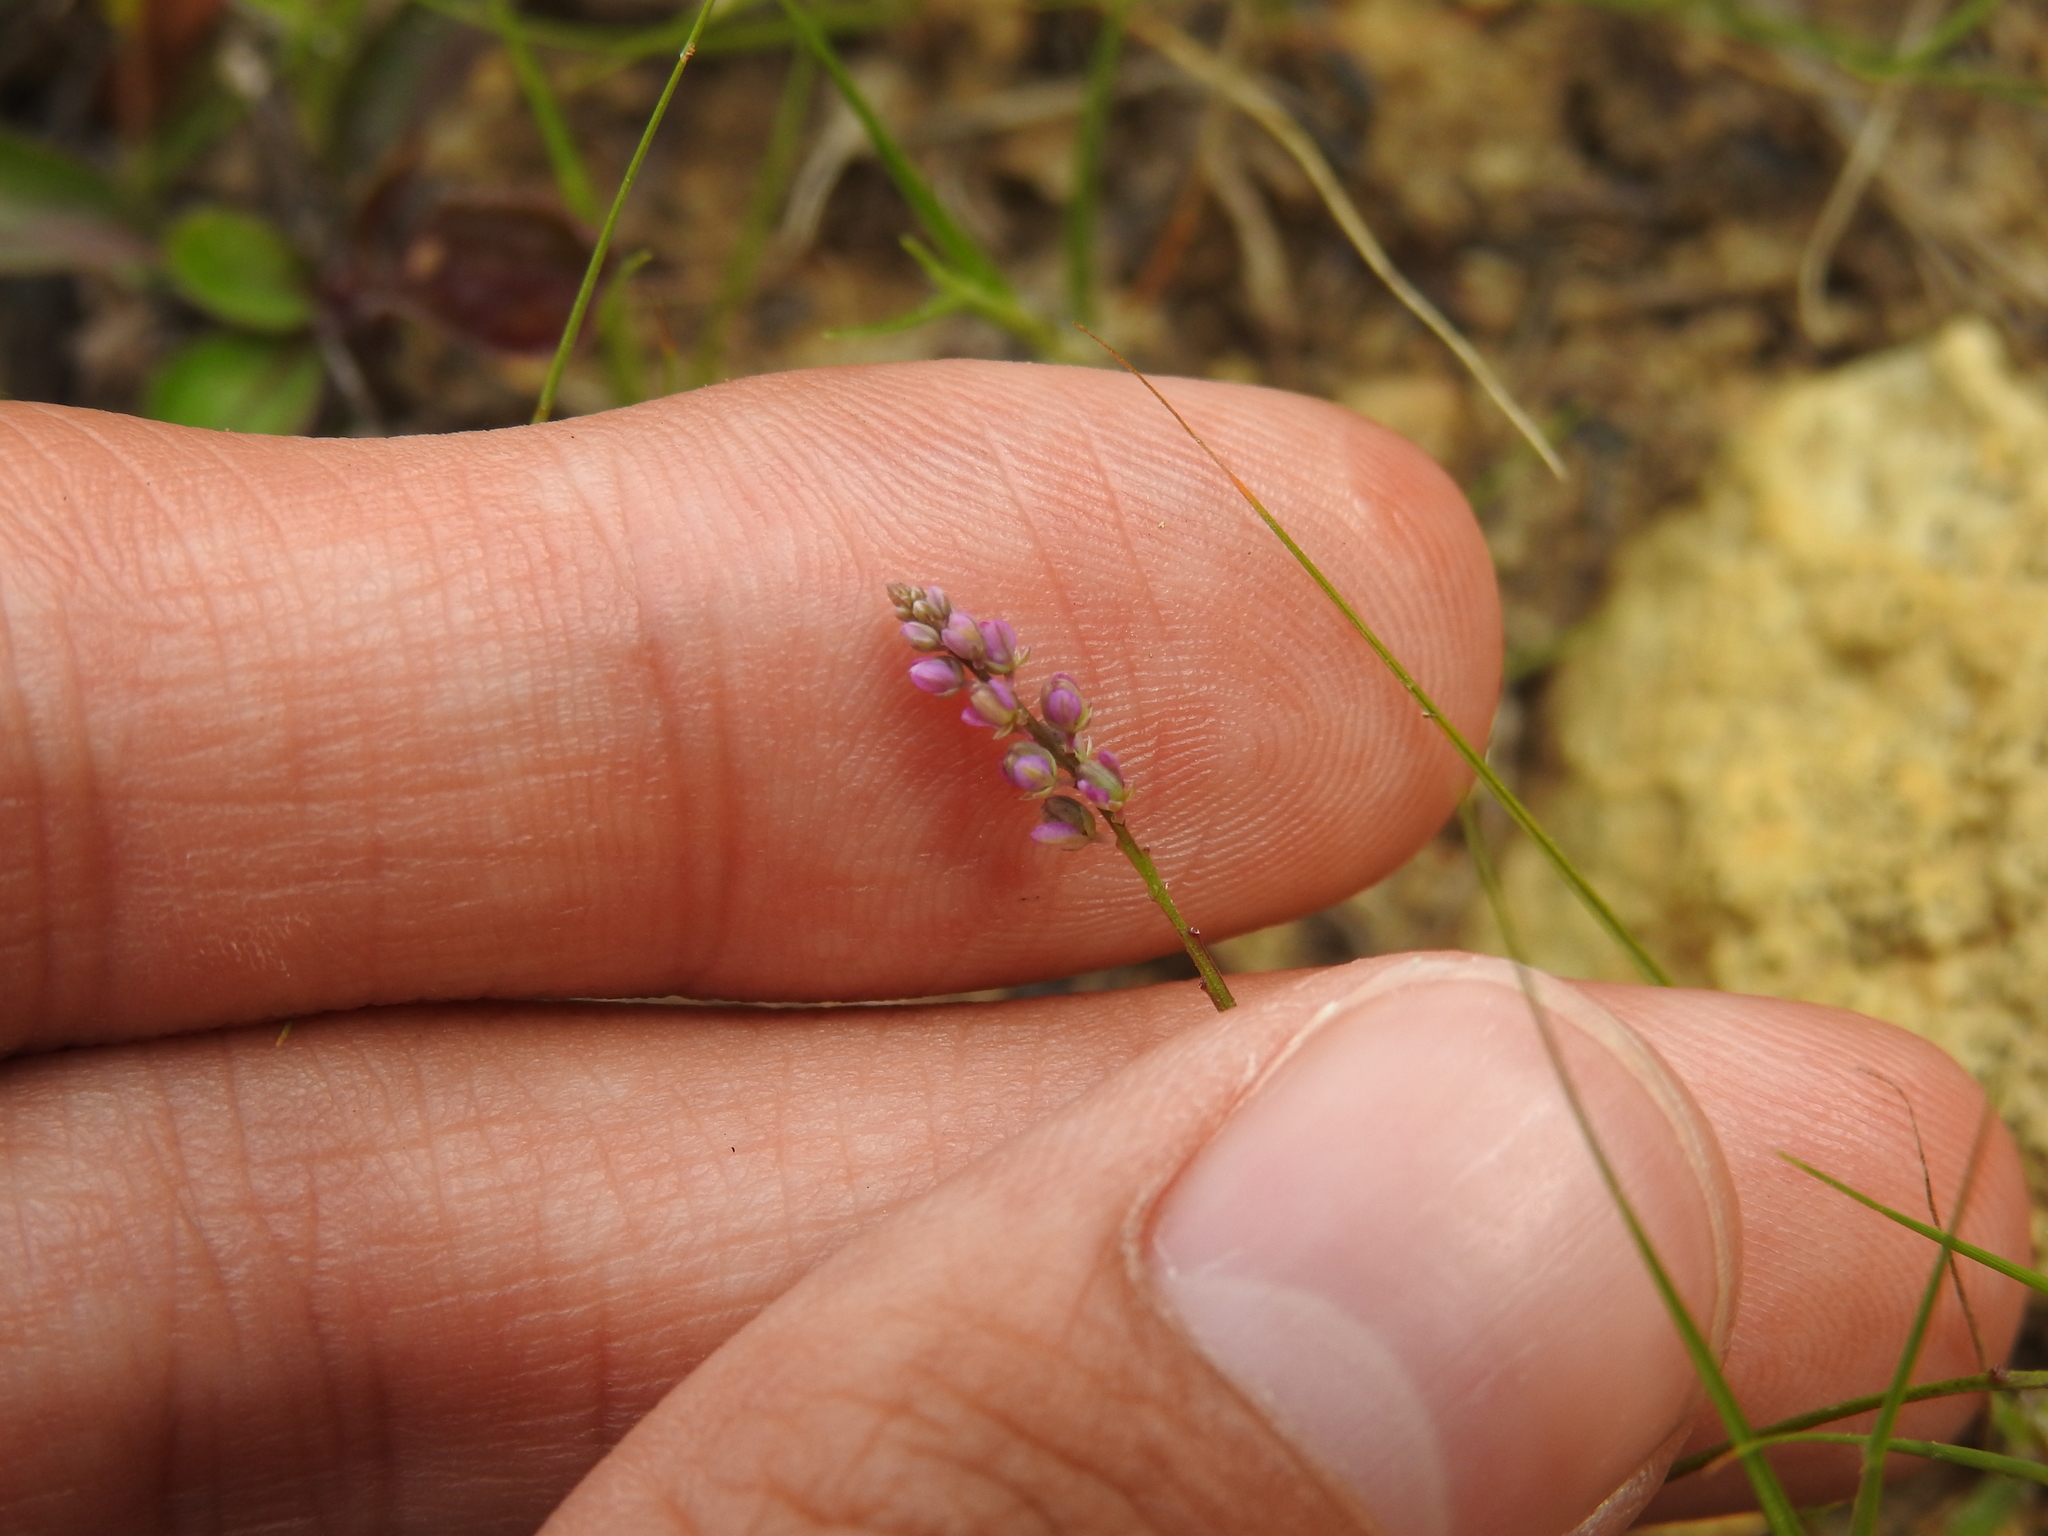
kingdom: Plantae
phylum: Tracheophyta
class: Magnoliopsida
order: Fabales
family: Polygalaceae
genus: Polygala
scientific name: Polygala verticillata
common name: Whorl milkwort
